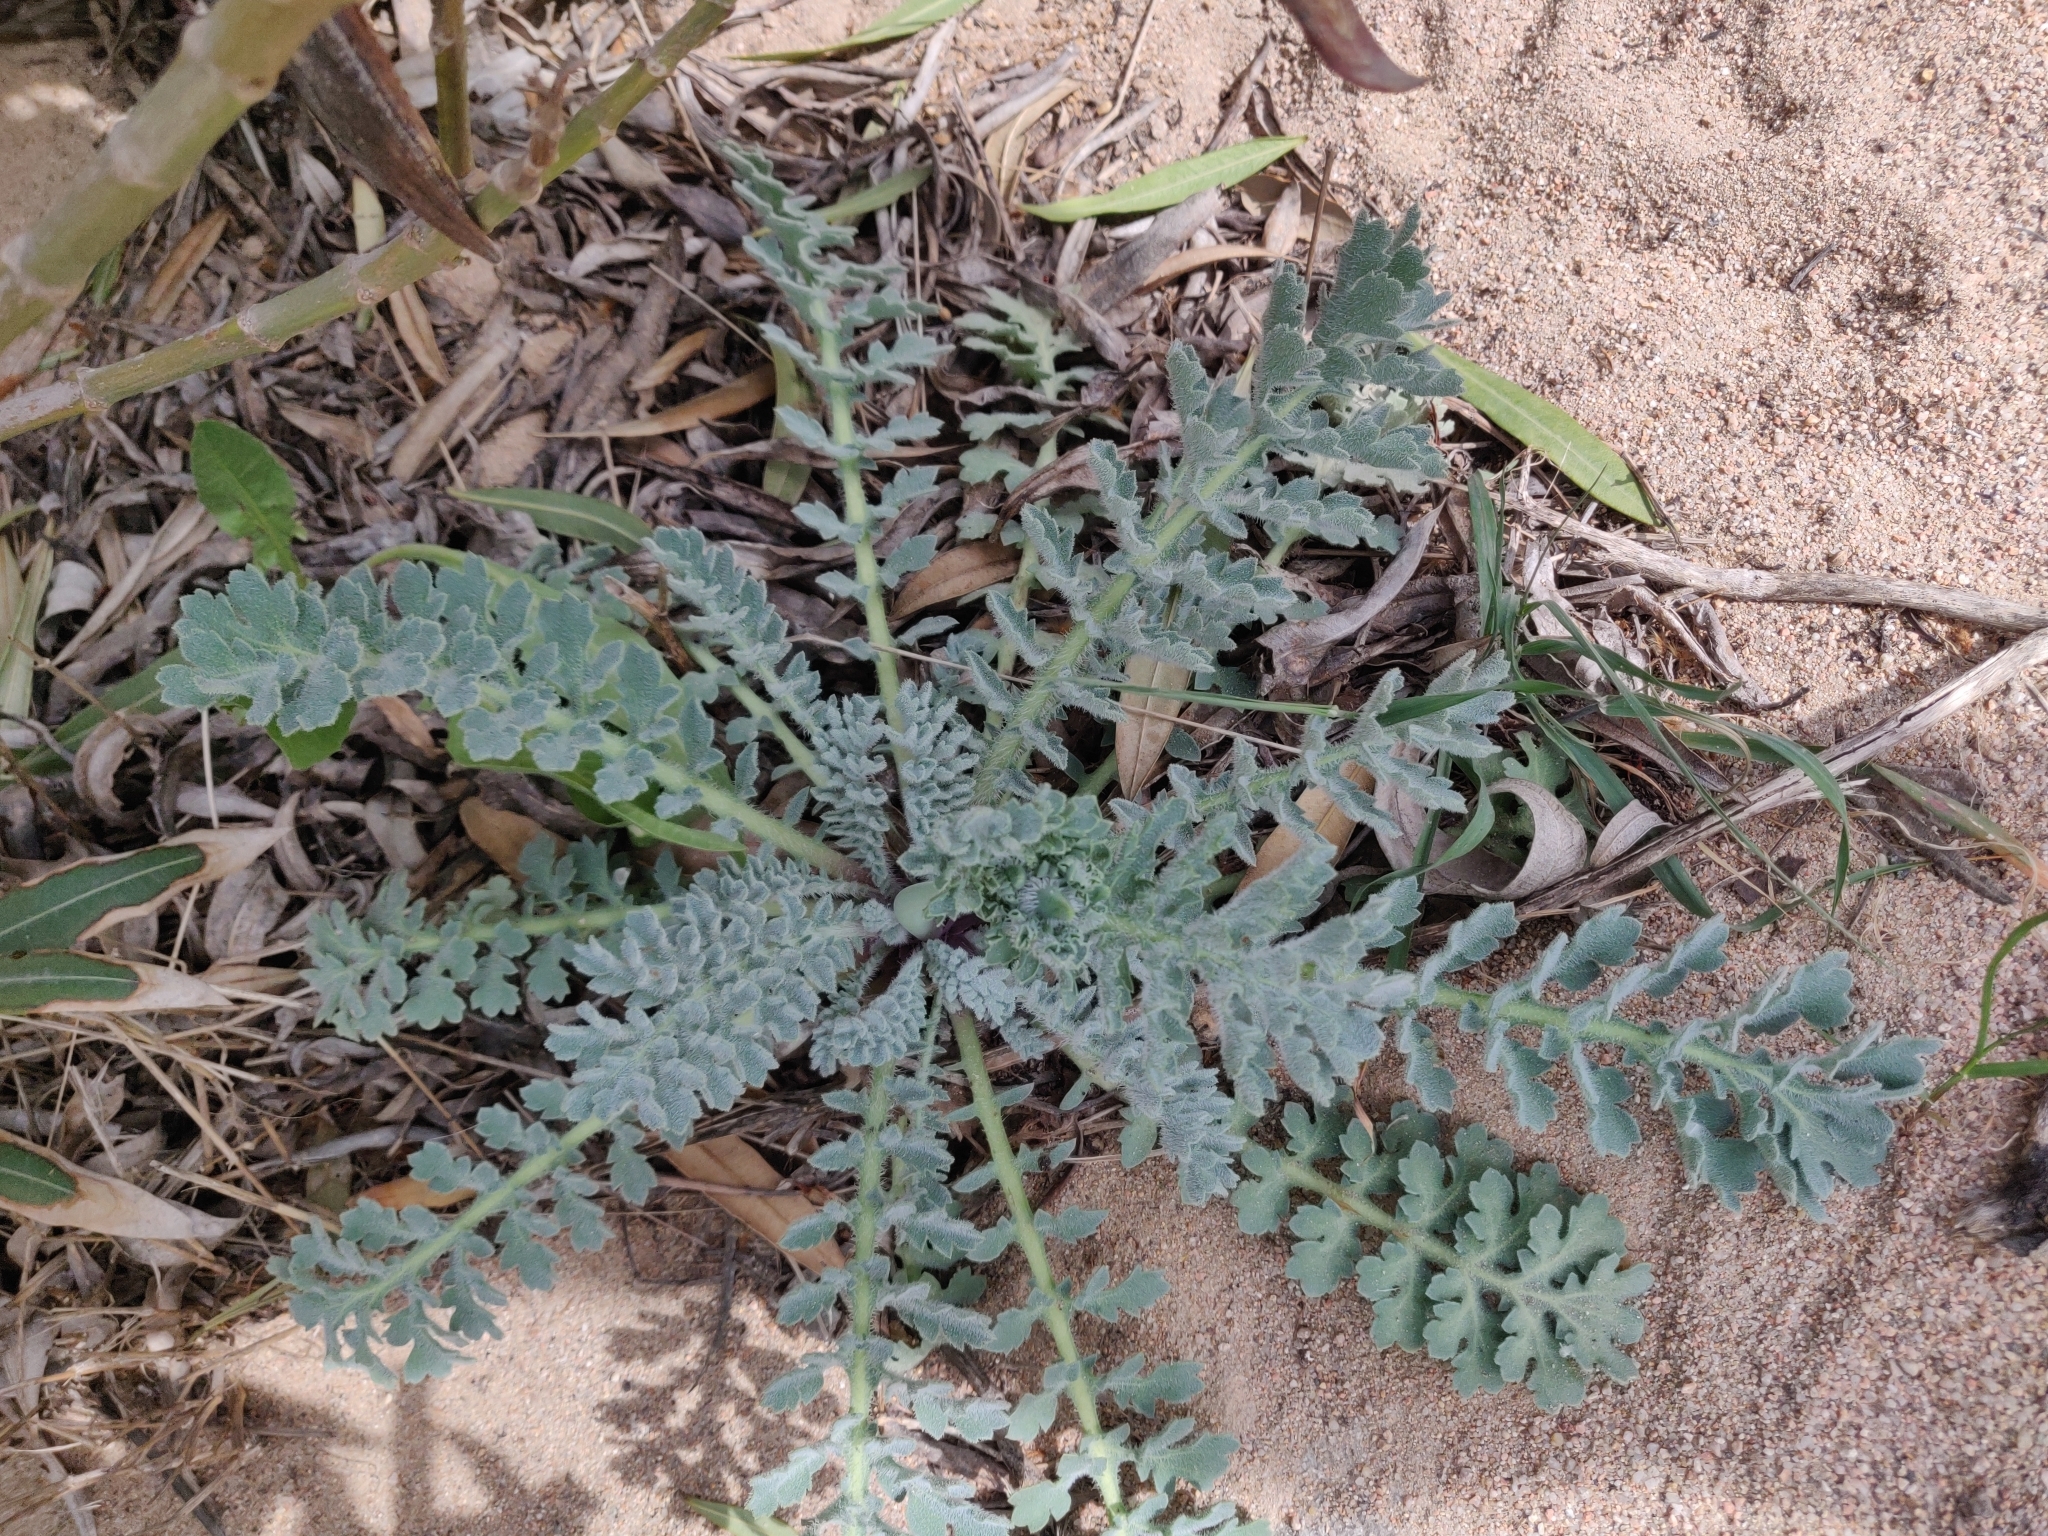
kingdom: Plantae
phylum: Tracheophyta
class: Magnoliopsida
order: Ranunculales
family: Papaveraceae
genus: Glaucium
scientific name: Glaucium flavum
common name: Yellow horned-poppy
